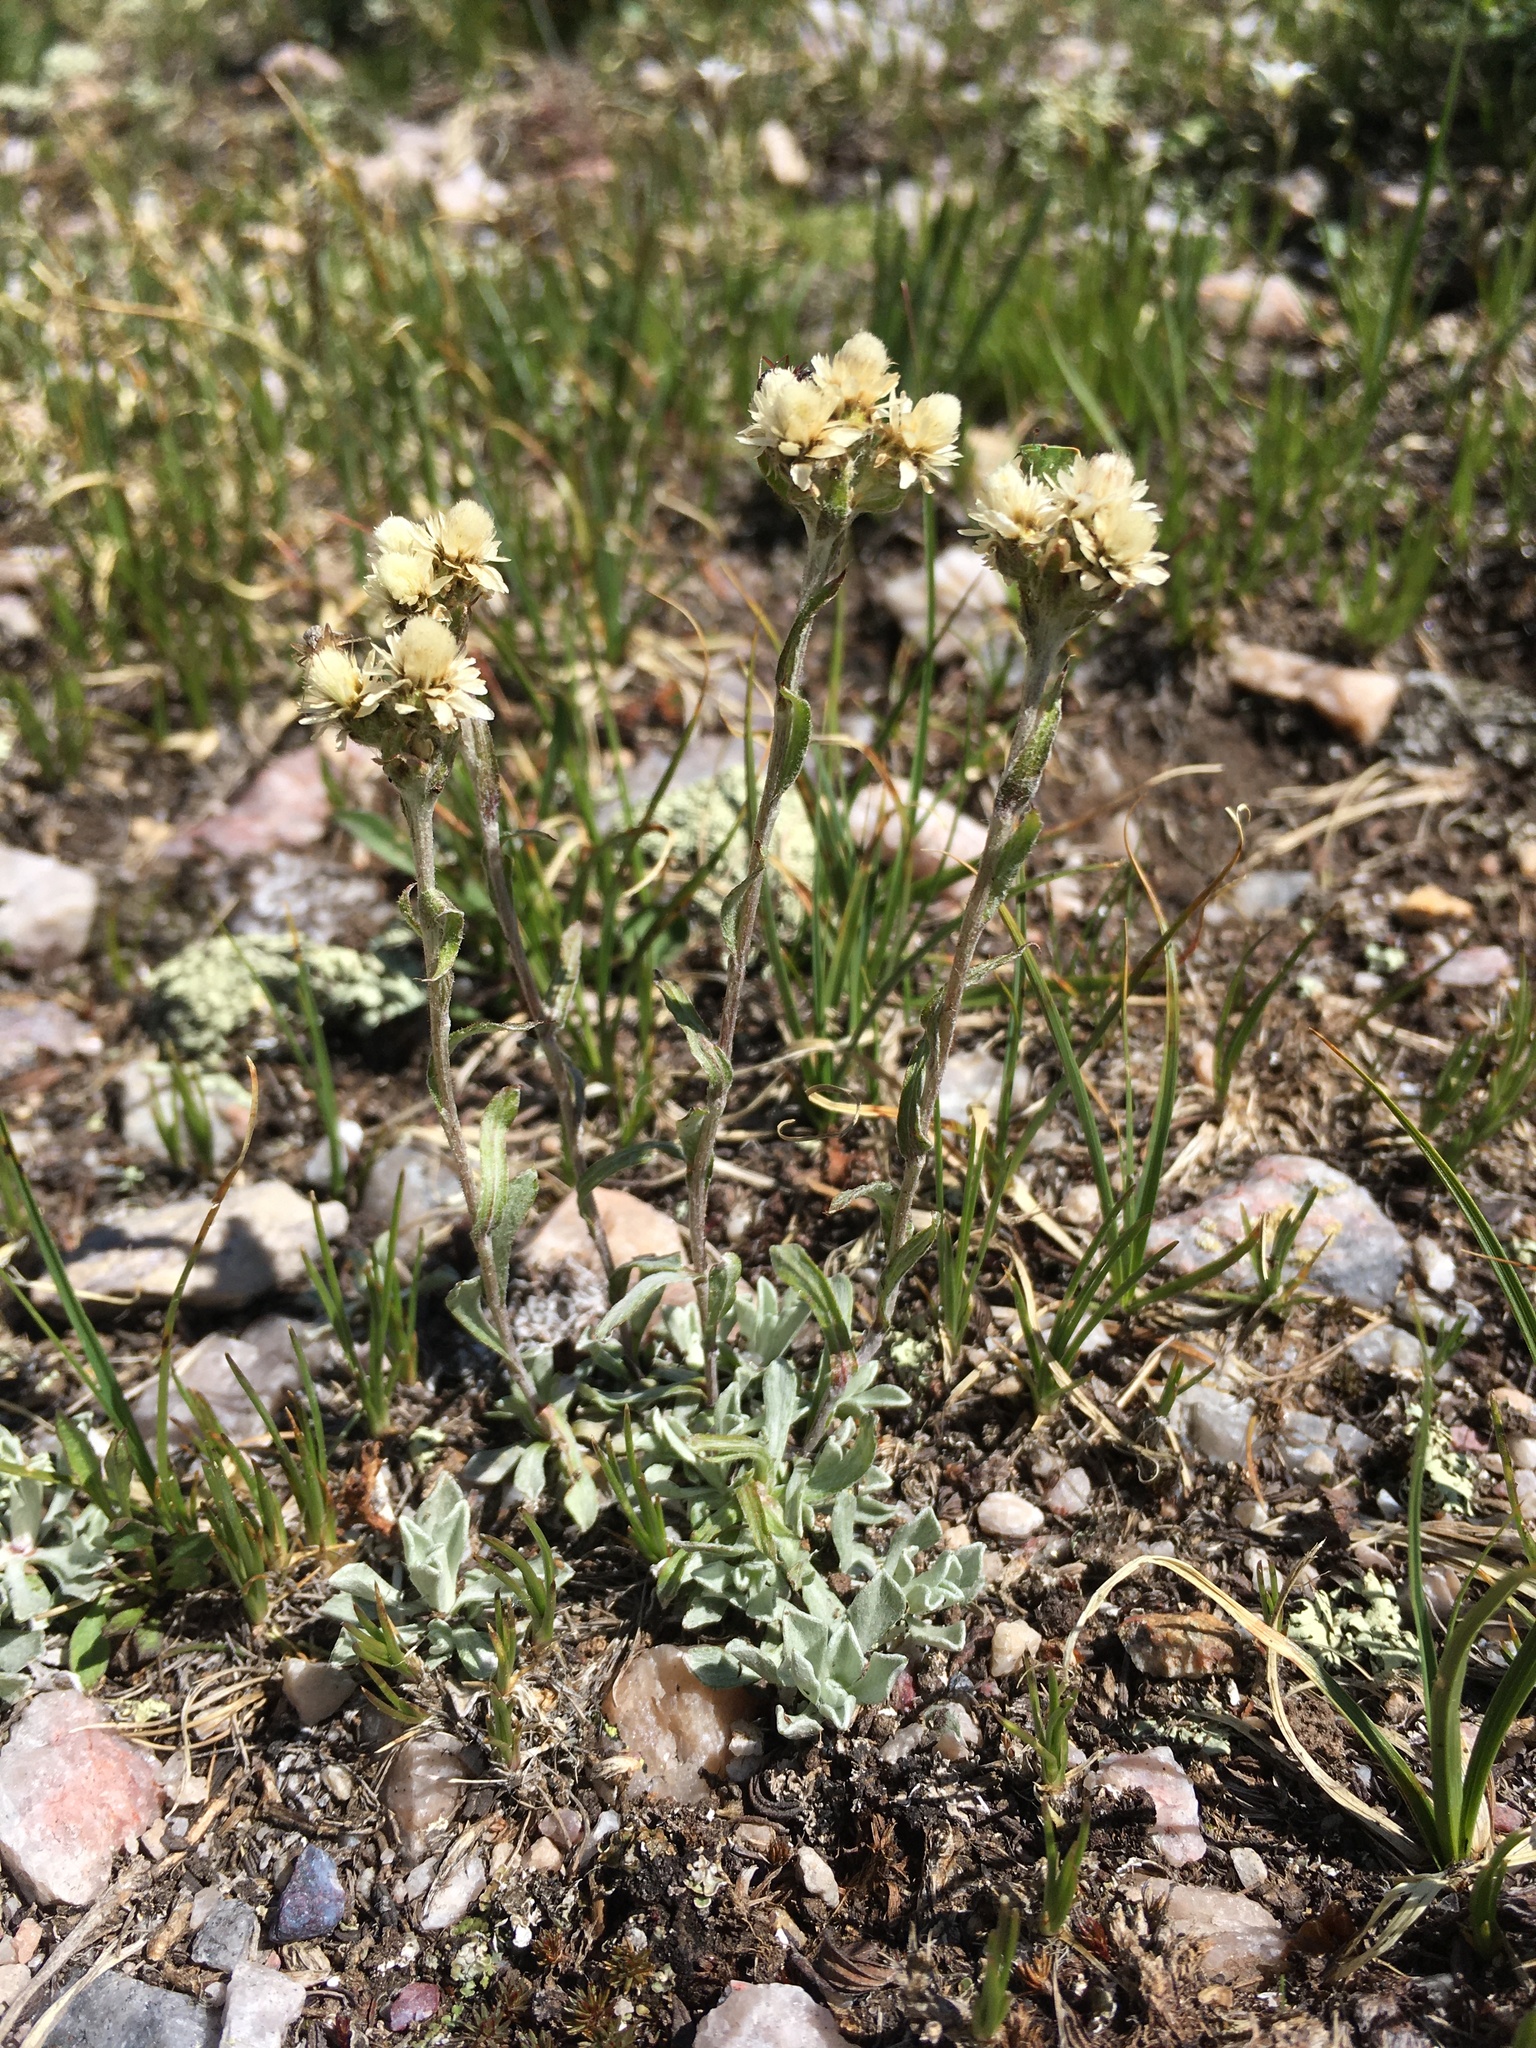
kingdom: Plantae
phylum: Tracheophyta
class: Magnoliopsida
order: Asterales
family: Asteraceae
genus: Antennaria
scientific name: Antennaria umbrinella
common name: Brown pussytoes
